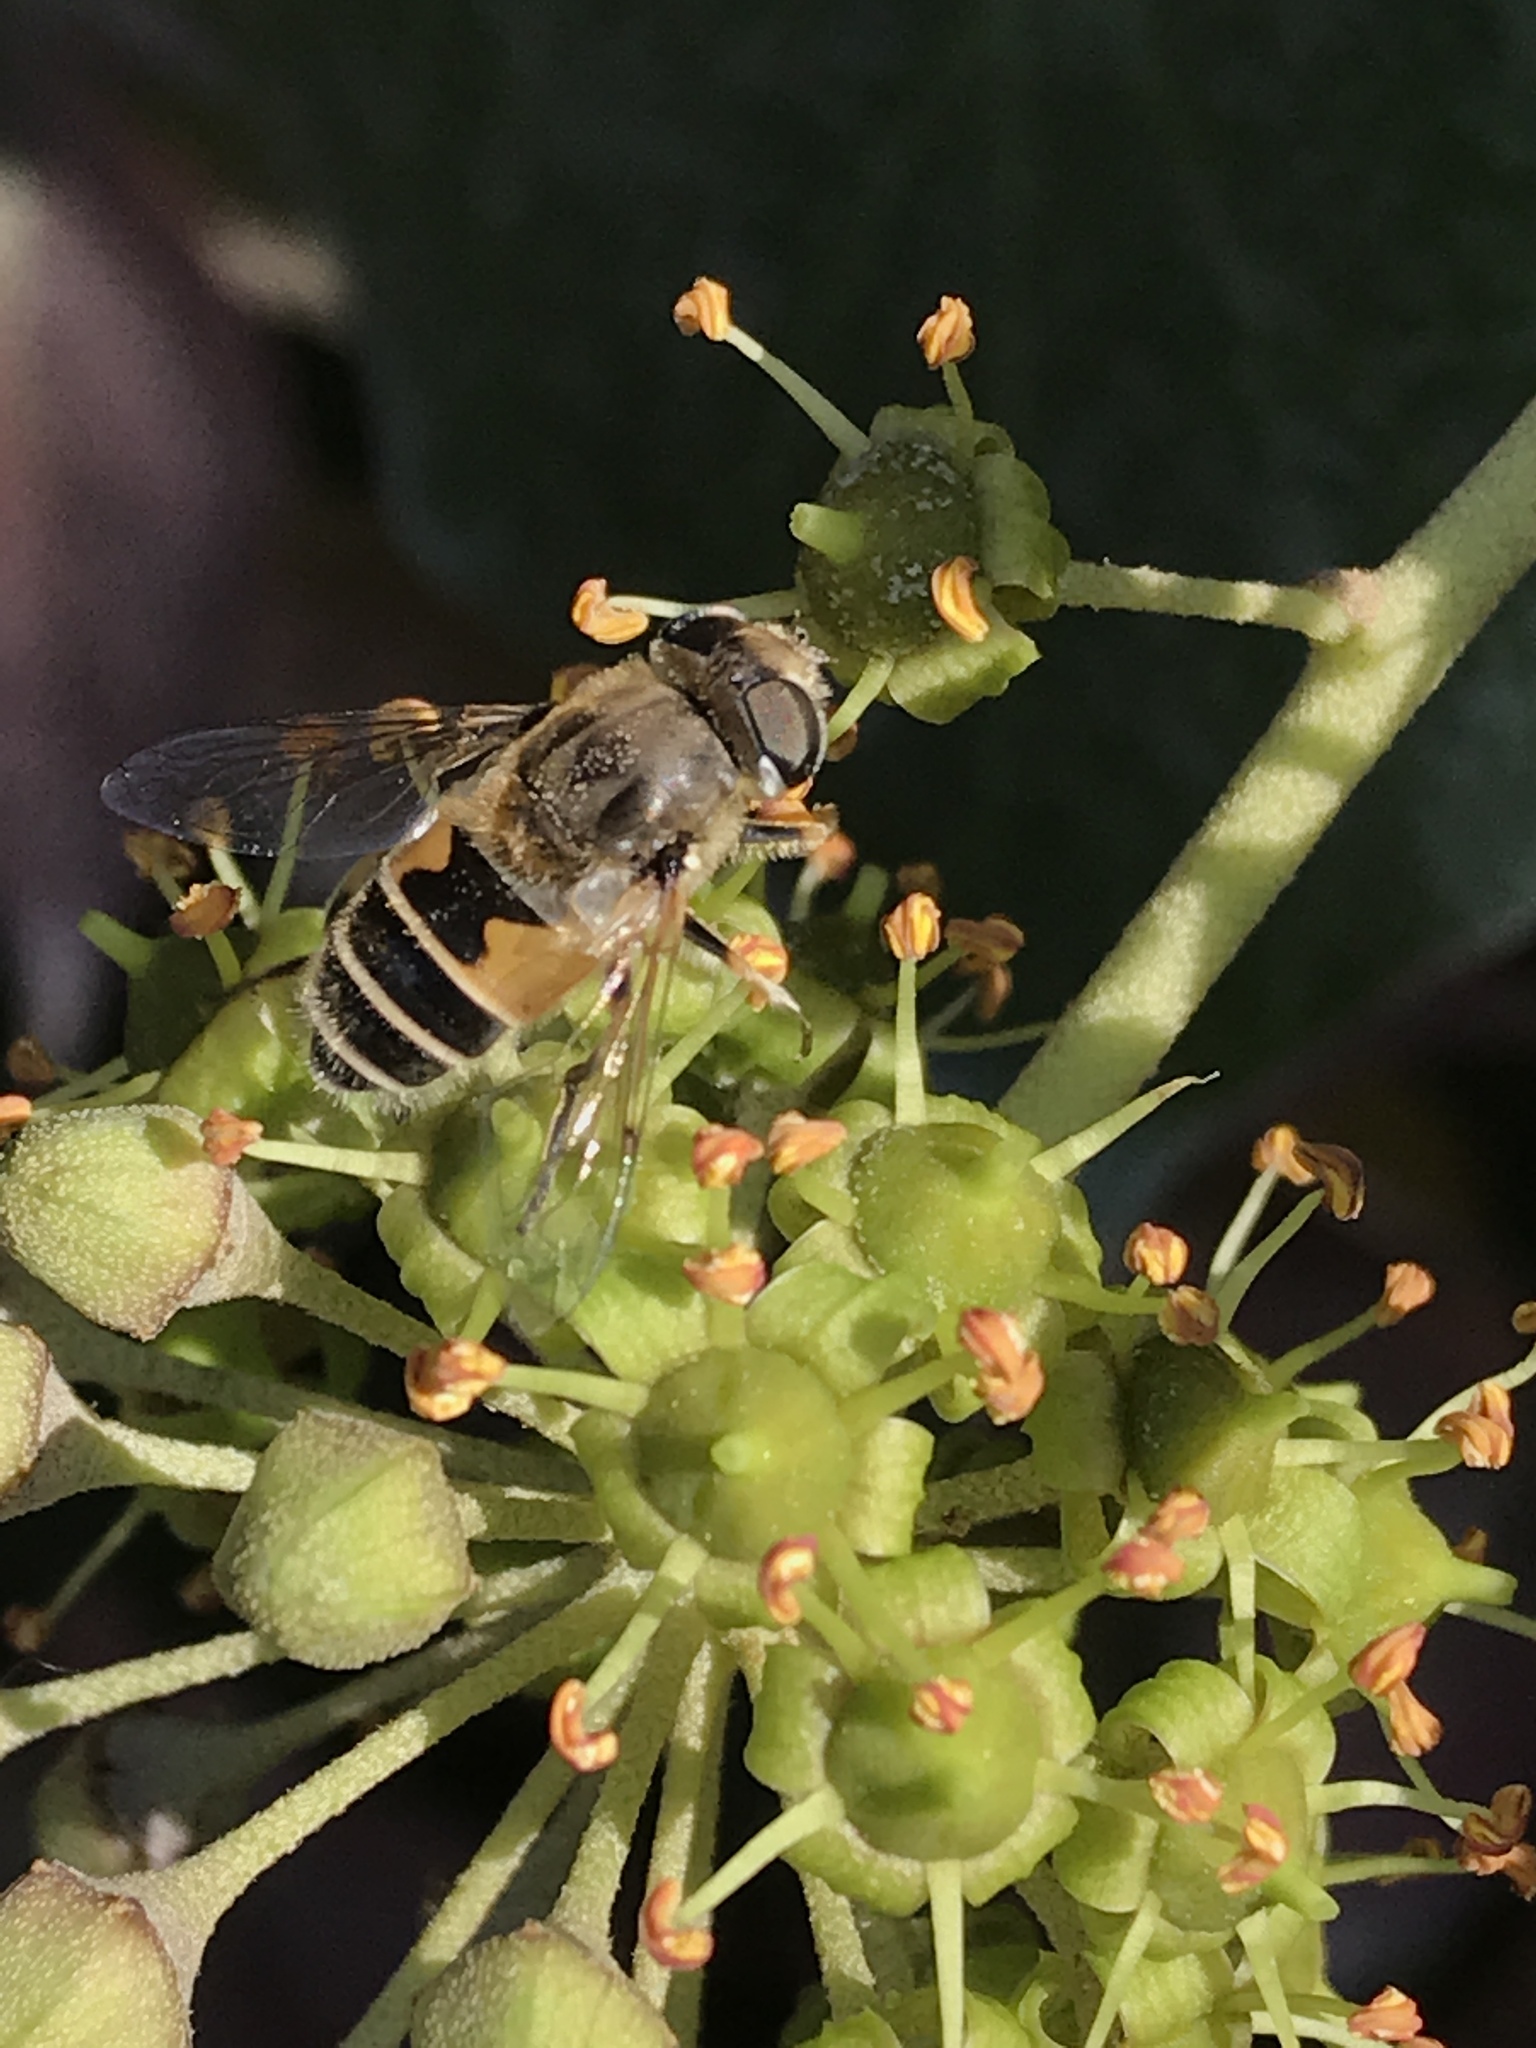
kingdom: Animalia
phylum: Arthropoda
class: Insecta
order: Diptera
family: Syrphidae
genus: Eristalis
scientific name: Eristalis arbustorum
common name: Hover fly
